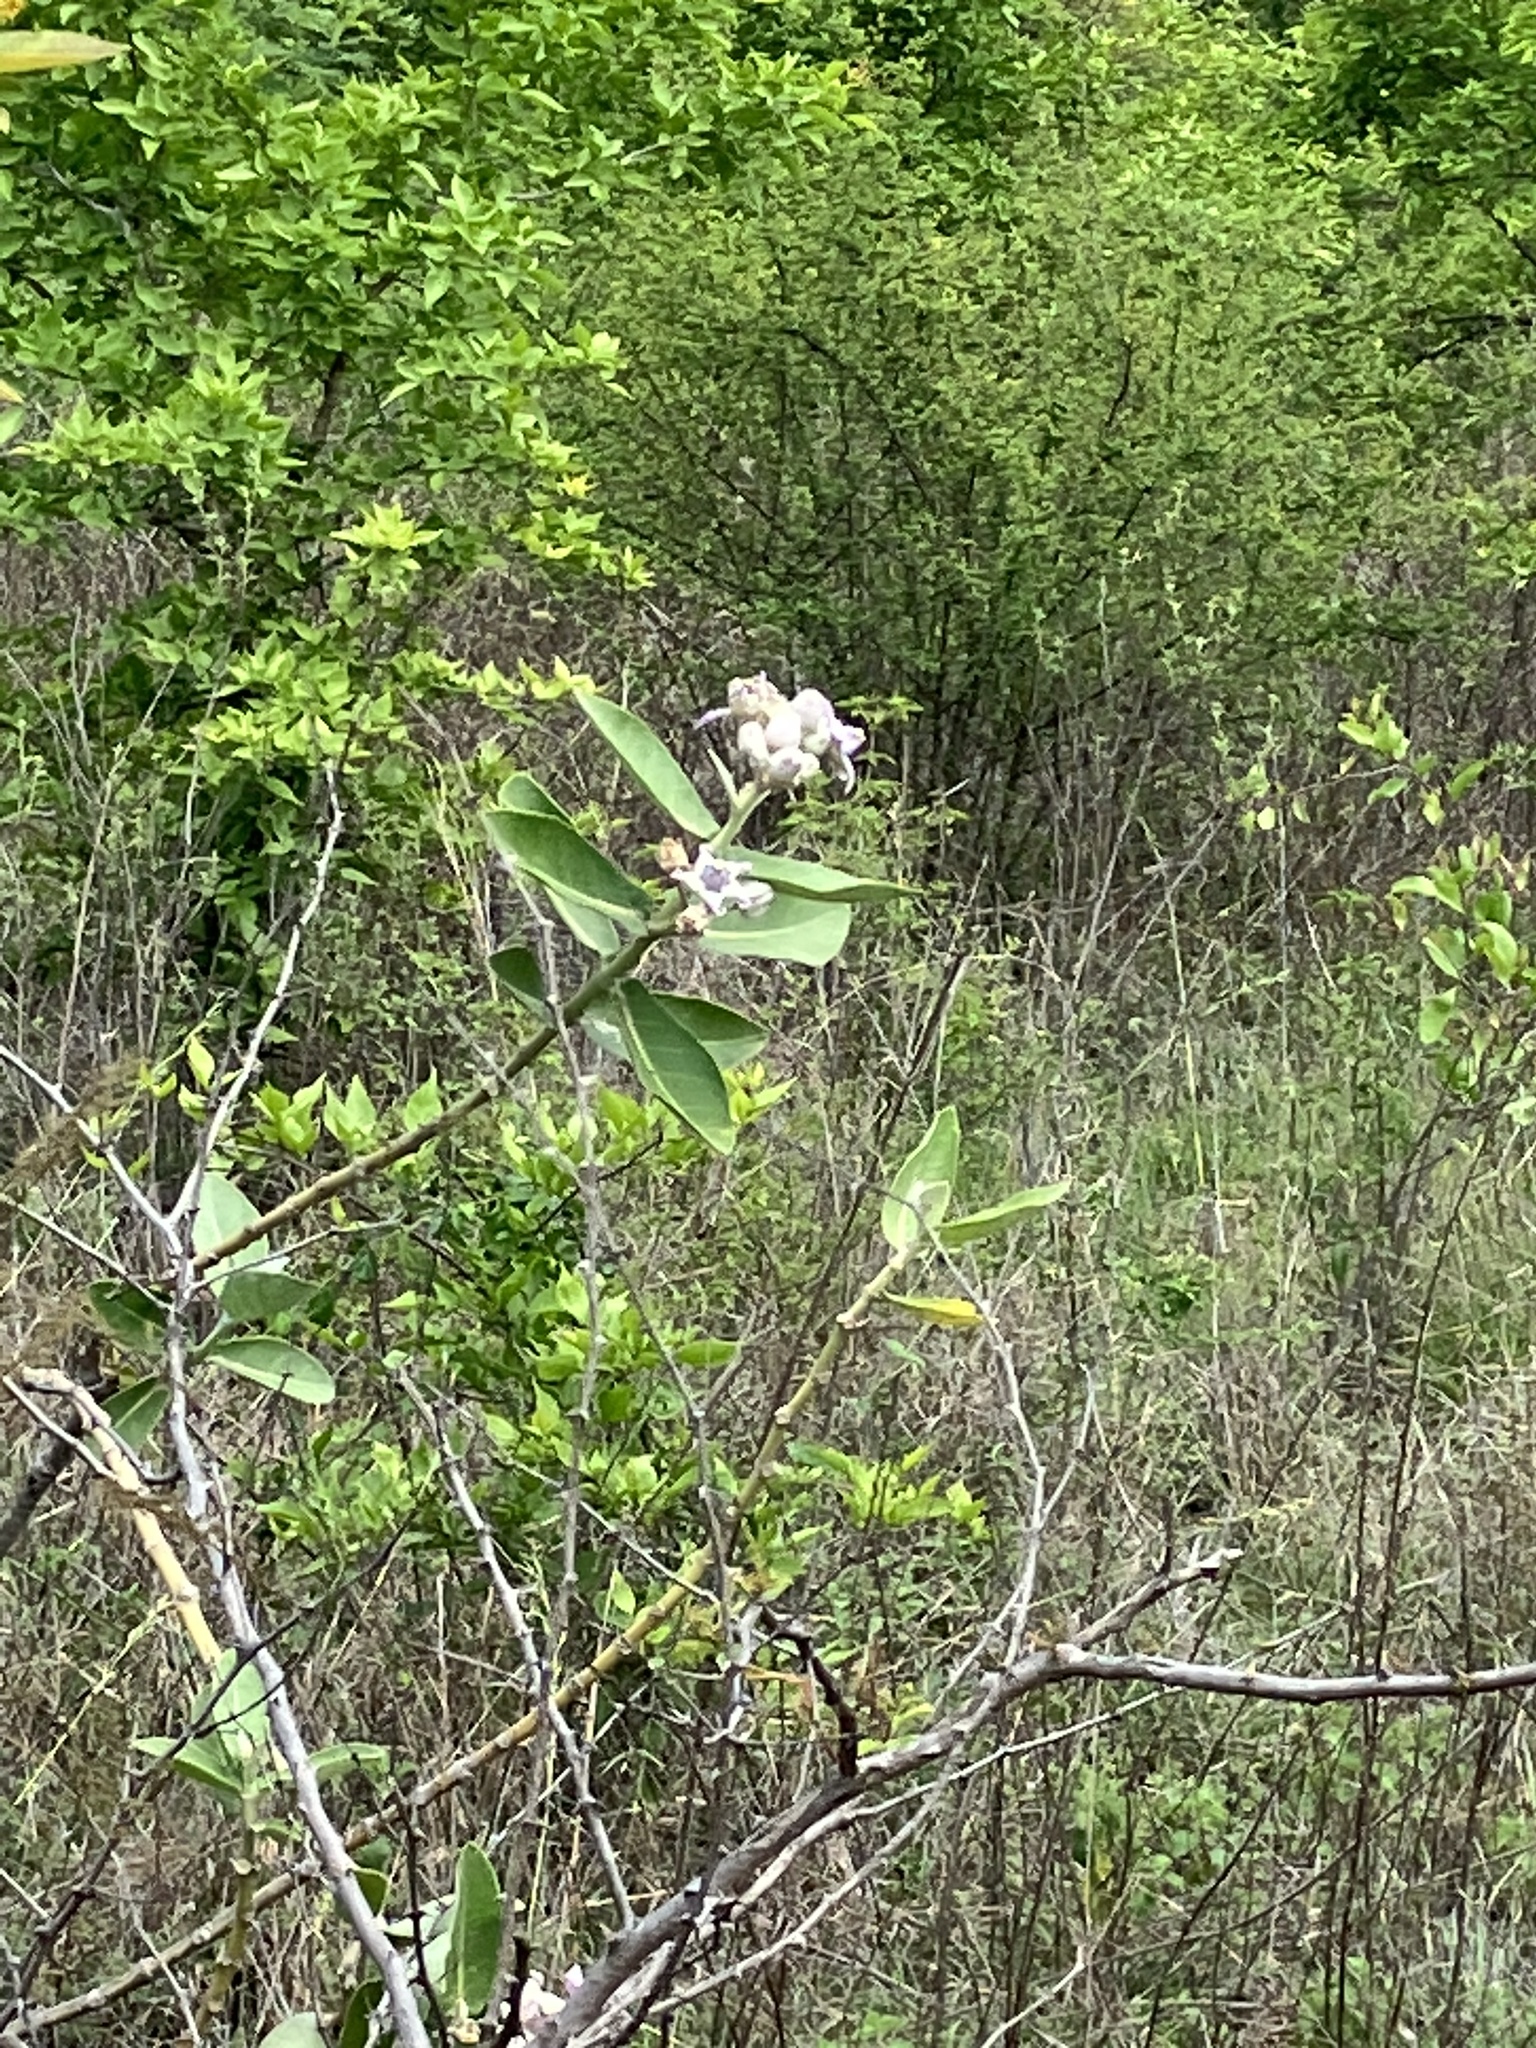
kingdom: Plantae
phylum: Tracheophyta
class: Magnoliopsida
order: Gentianales
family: Apocynaceae
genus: Calotropis
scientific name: Calotropis gigantea
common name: Crown flower
